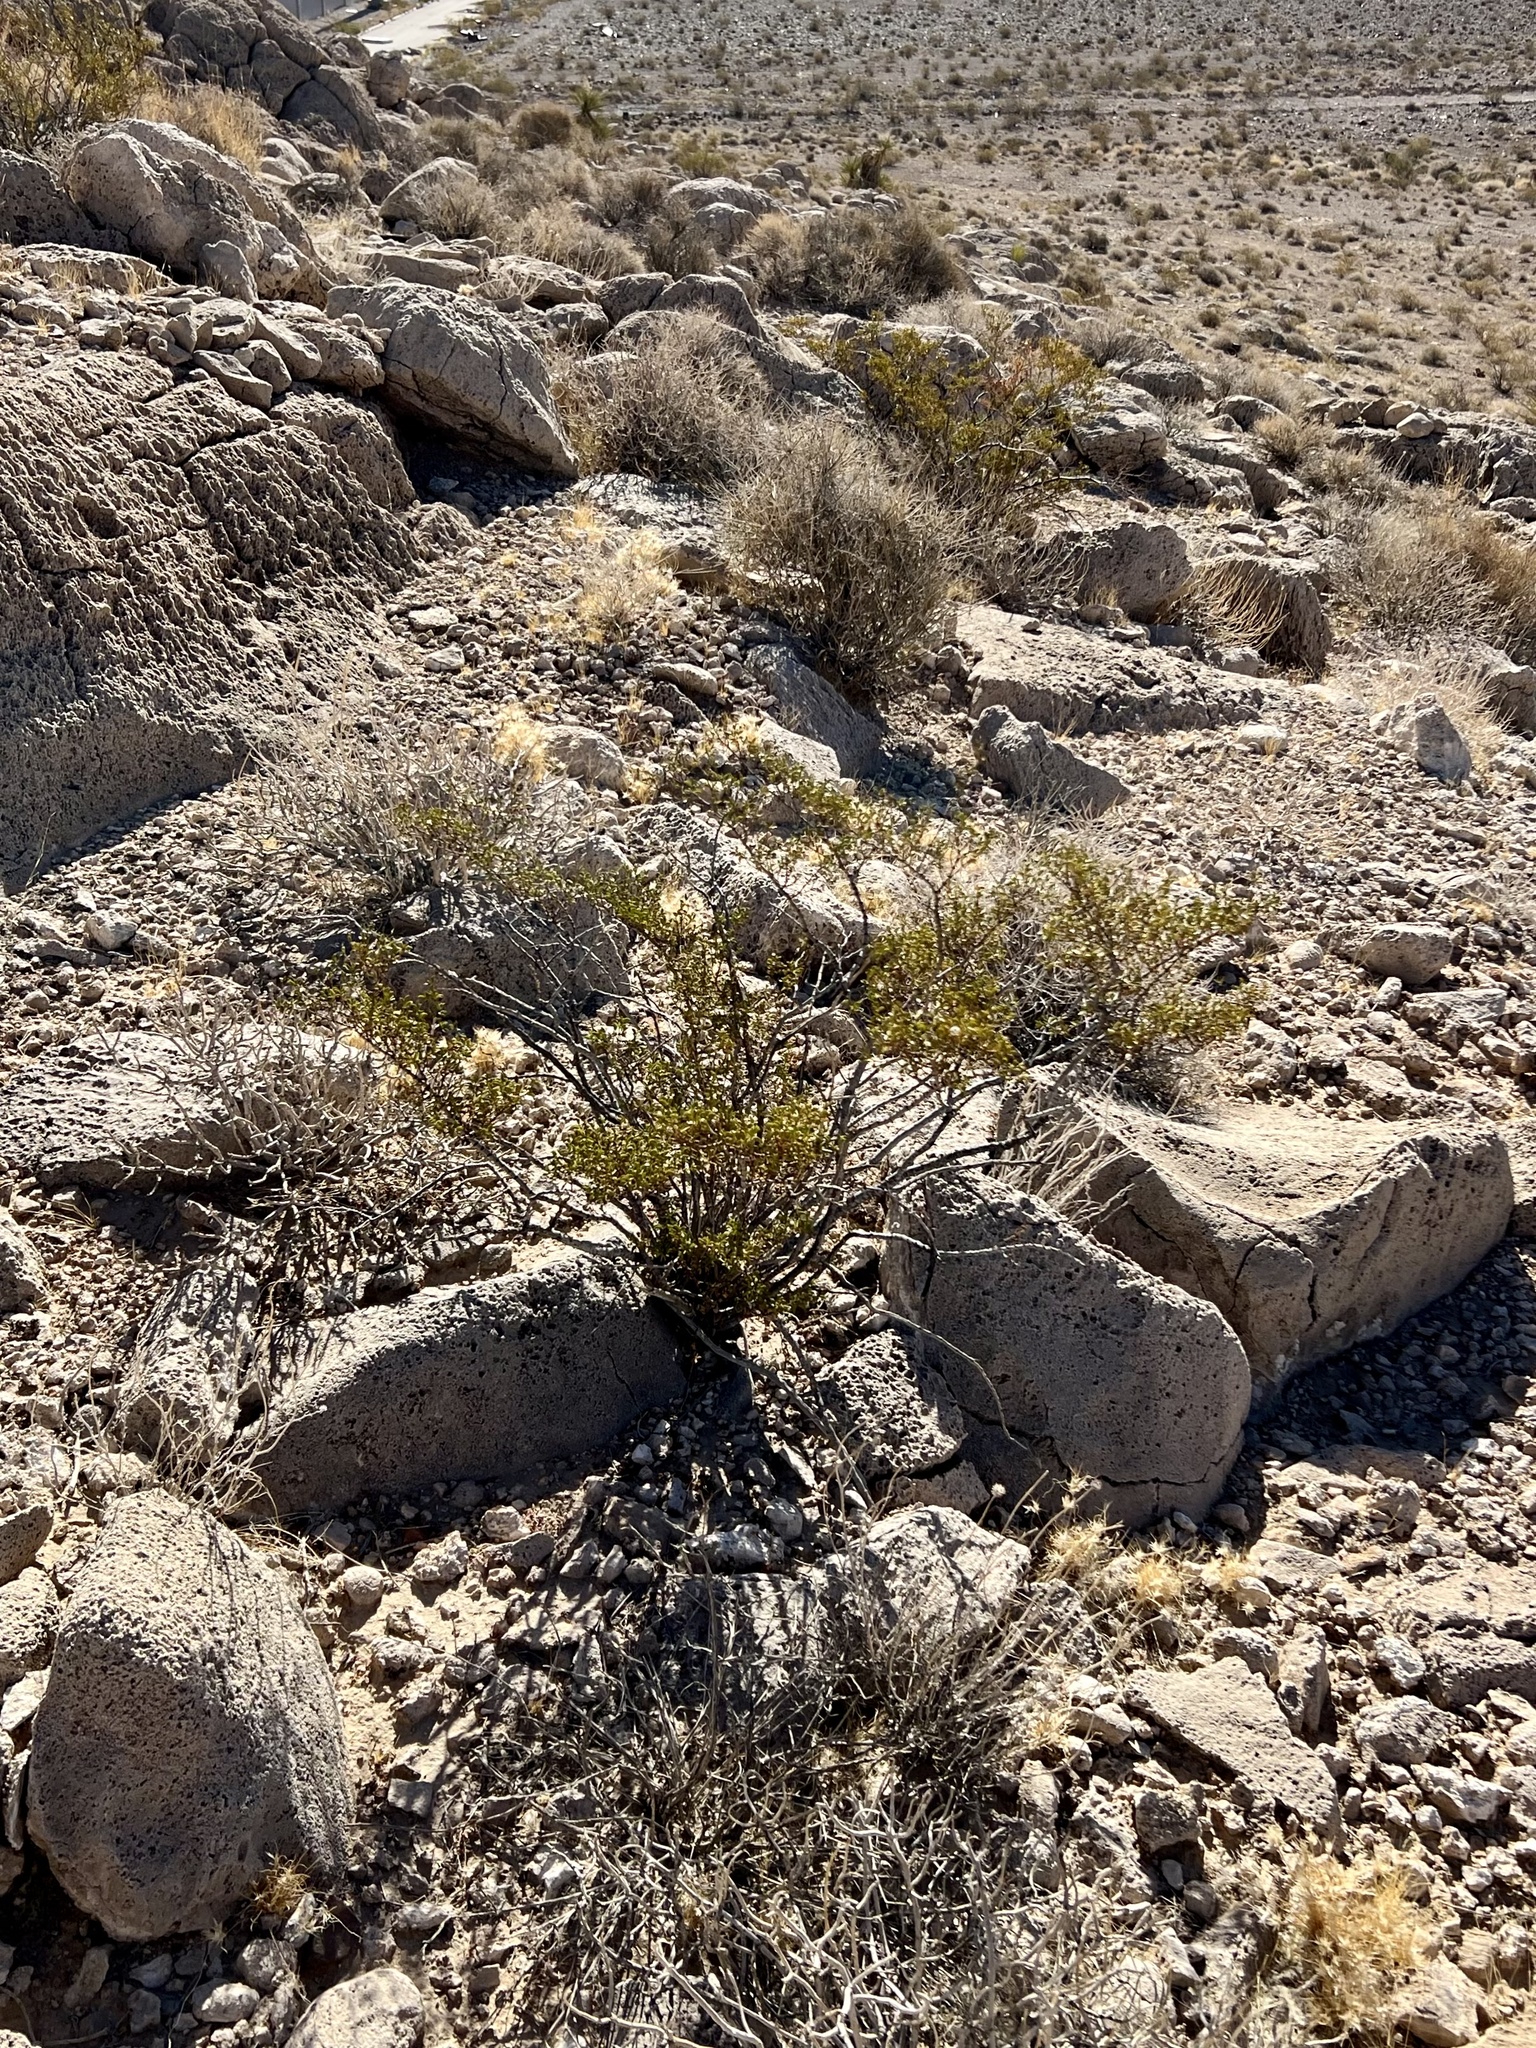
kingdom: Plantae
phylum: Tracheophyta
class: Magnoliopsida
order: Zygophyllales
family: Zygophyllaceae
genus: Larrea
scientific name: Larrea tridentata
